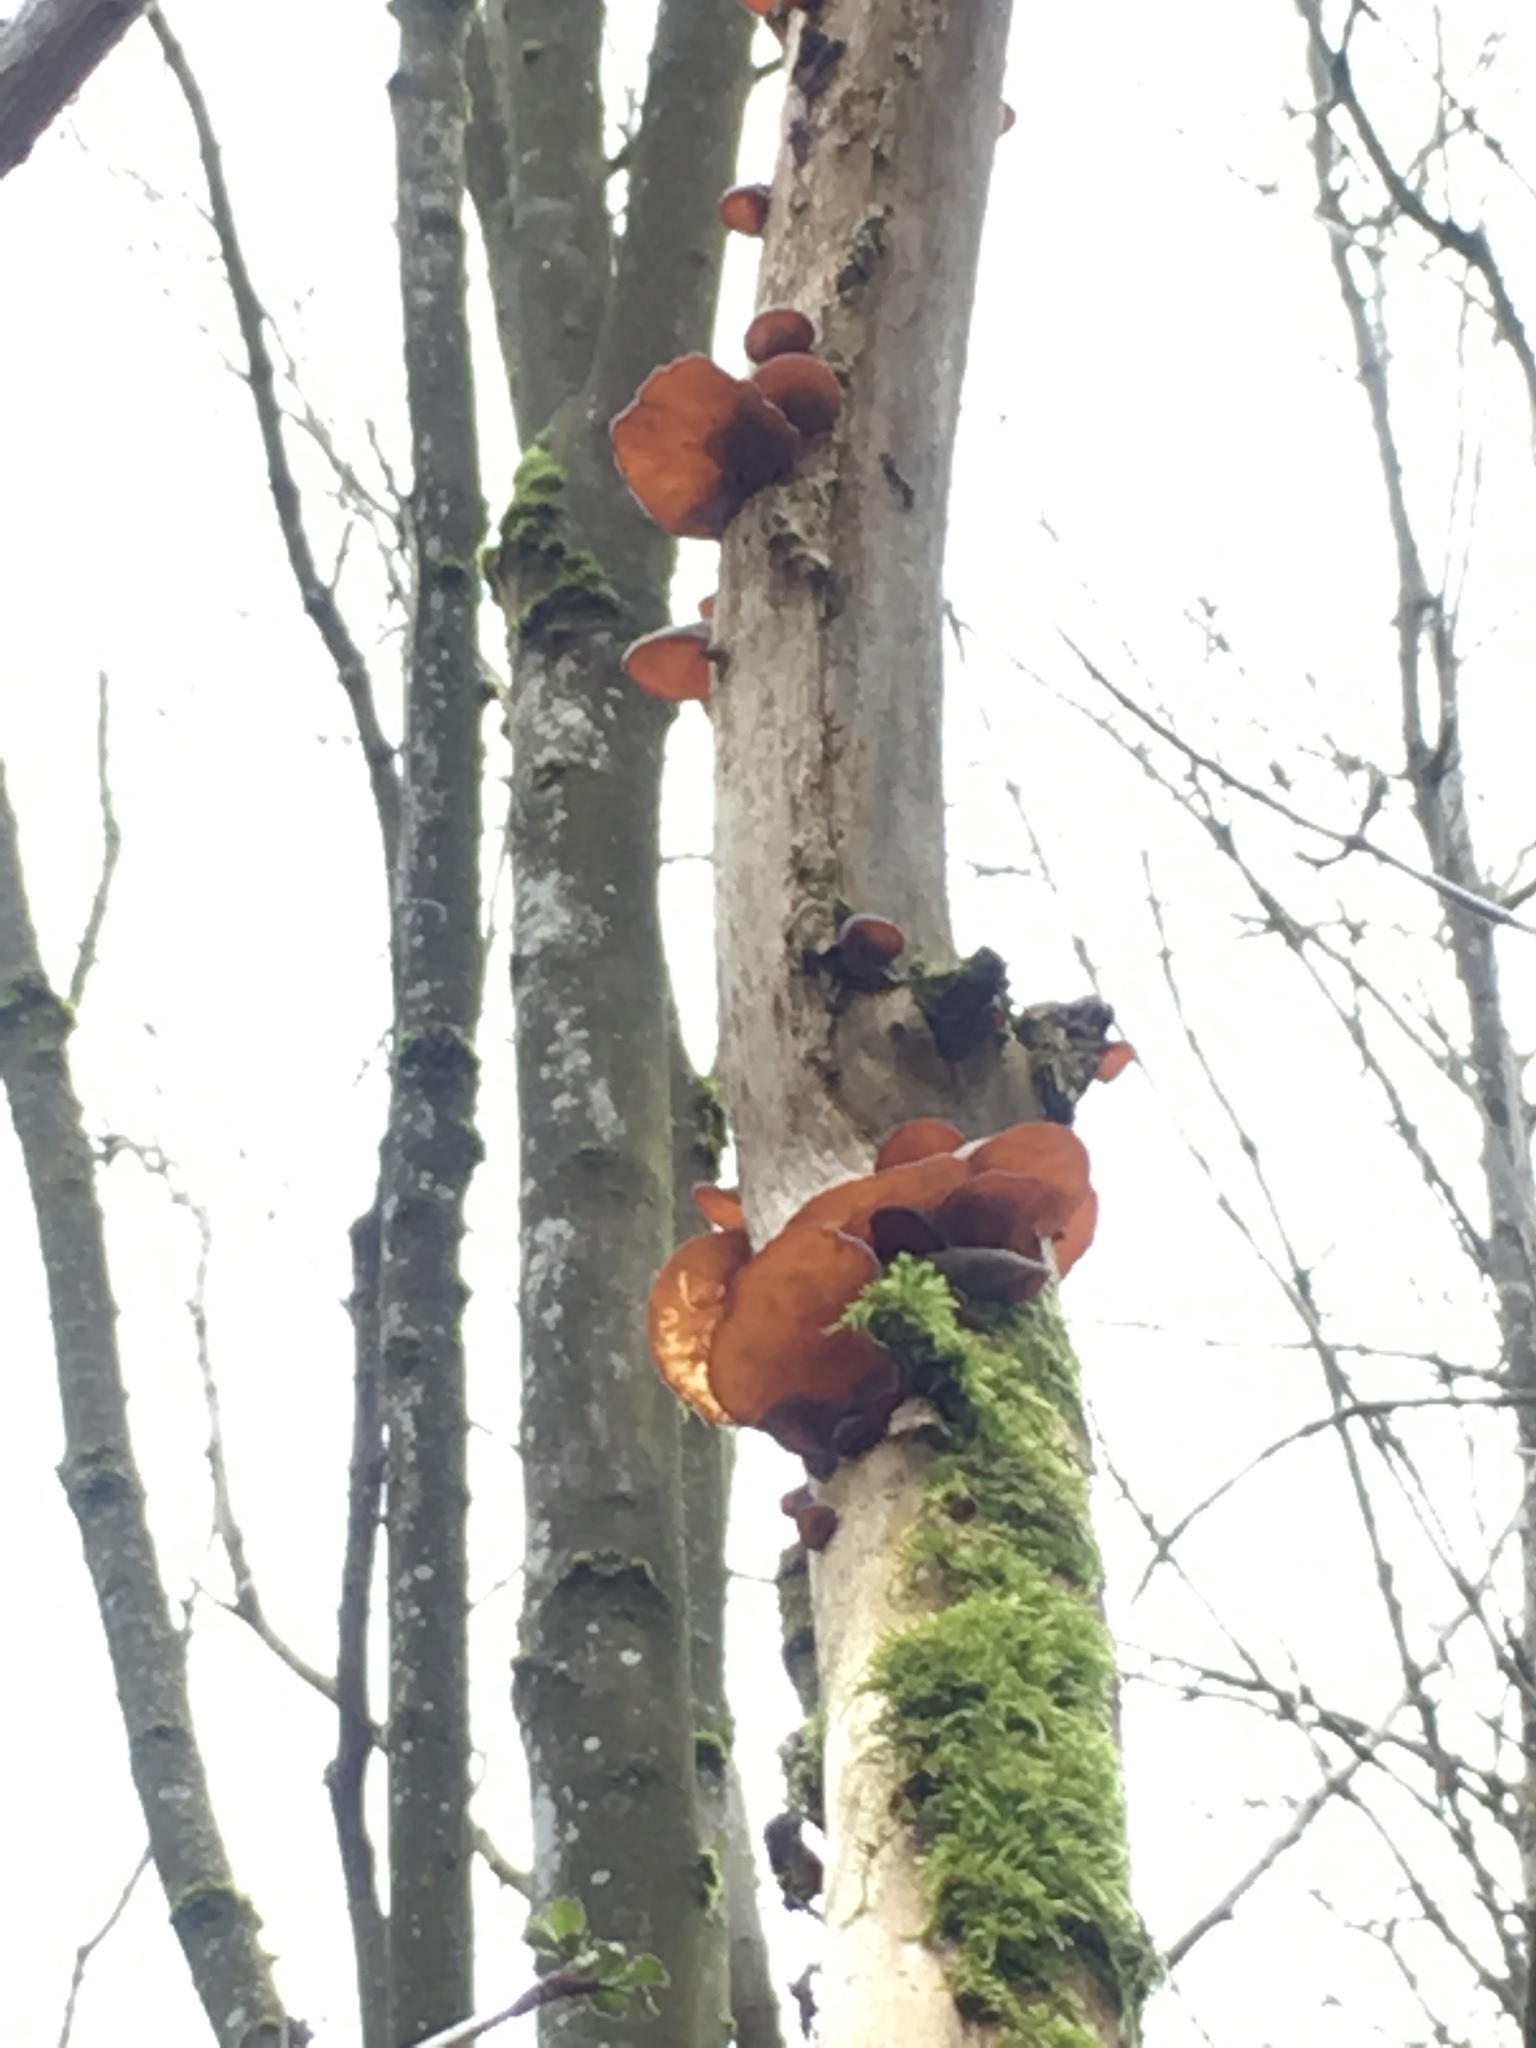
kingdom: Fungi
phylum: Basidiomycota
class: Agaricomycetes
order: Auriculariales
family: Auriculariaceae
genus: Auricularia
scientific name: Auricularia auricula-judae
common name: Jelly ear
